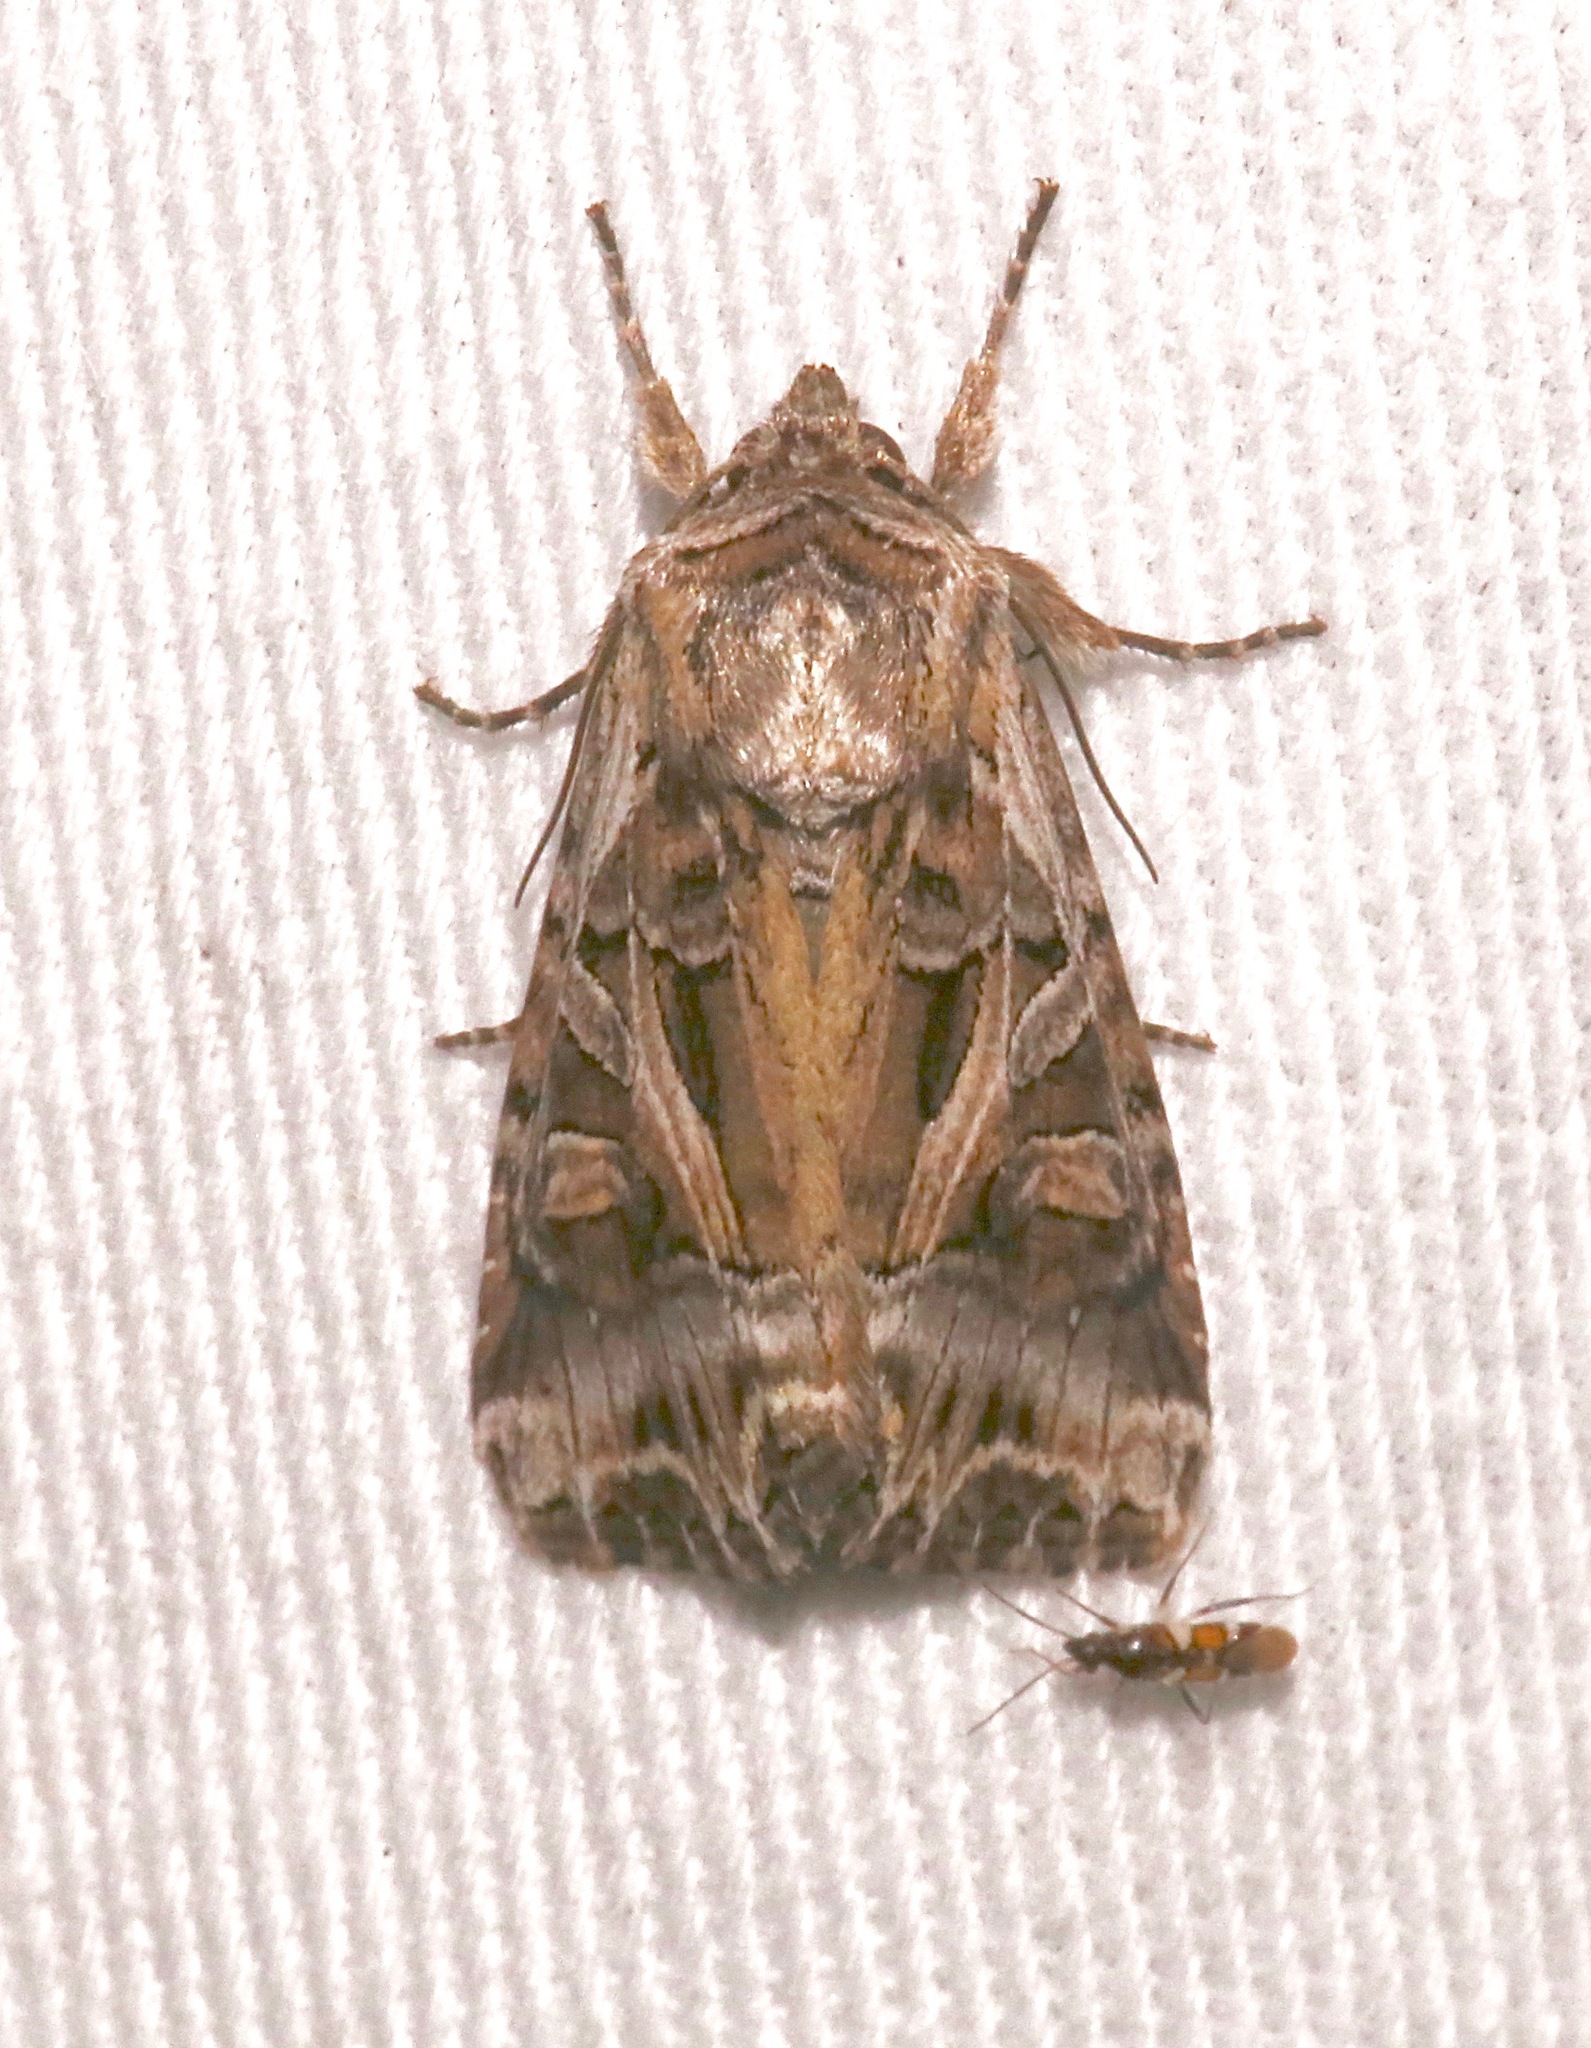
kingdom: Animalia
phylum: Arthropoda
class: Insecta
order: Lepidoptera
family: Noctuidae
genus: Trichordestra
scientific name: Trichordestra prodeniformis
